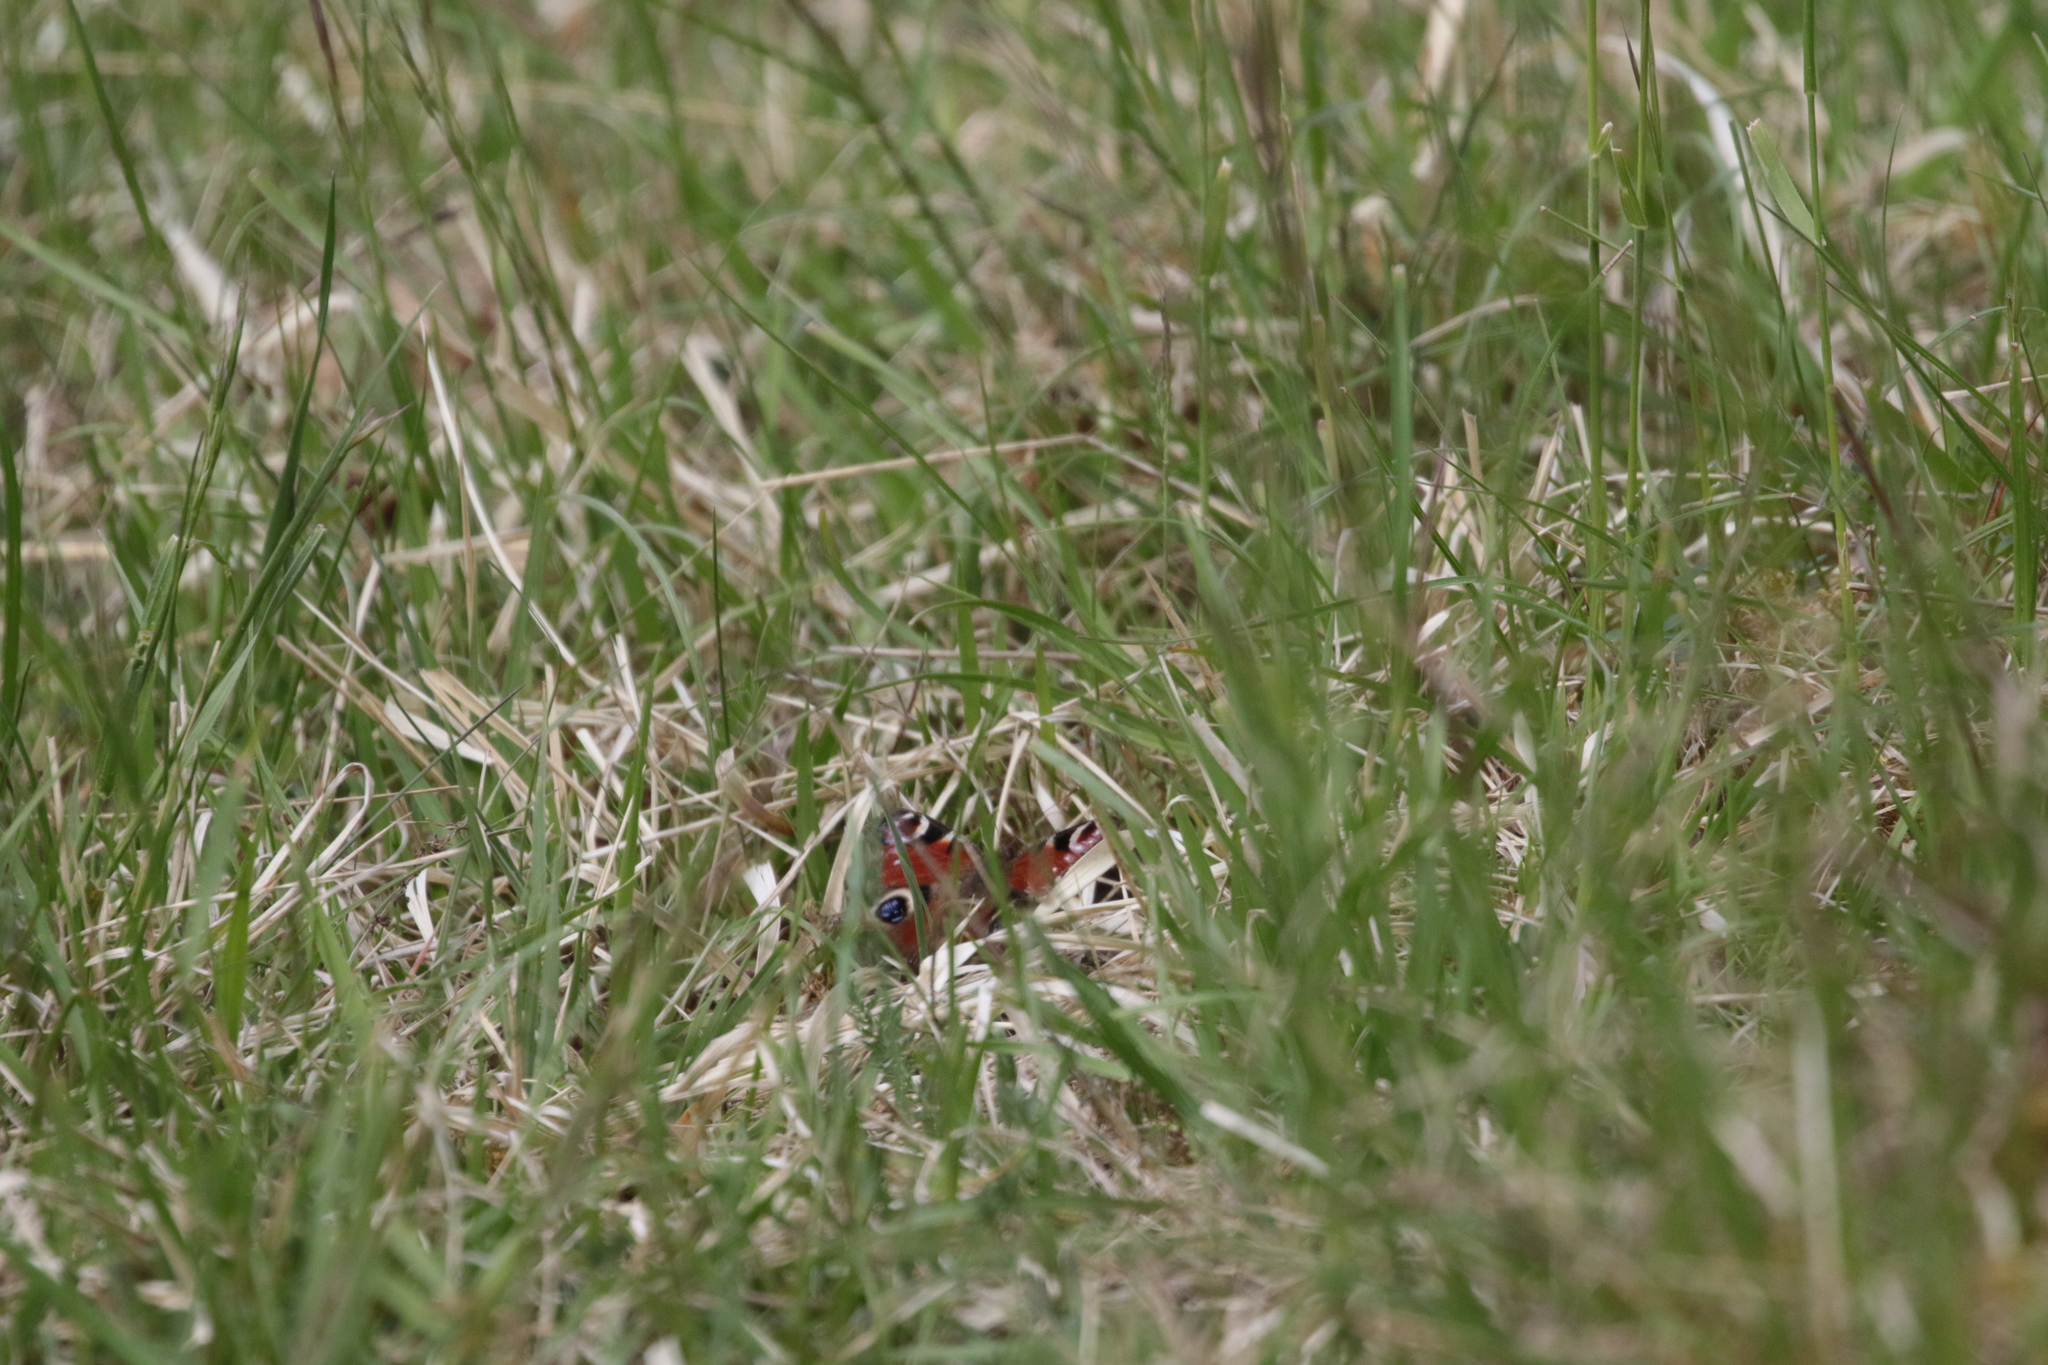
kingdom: Animalia
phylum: Arthropoda
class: Insecta
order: Lepidoptera
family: Nymphalidae
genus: Aglais
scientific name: Aglais io
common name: Peacock
